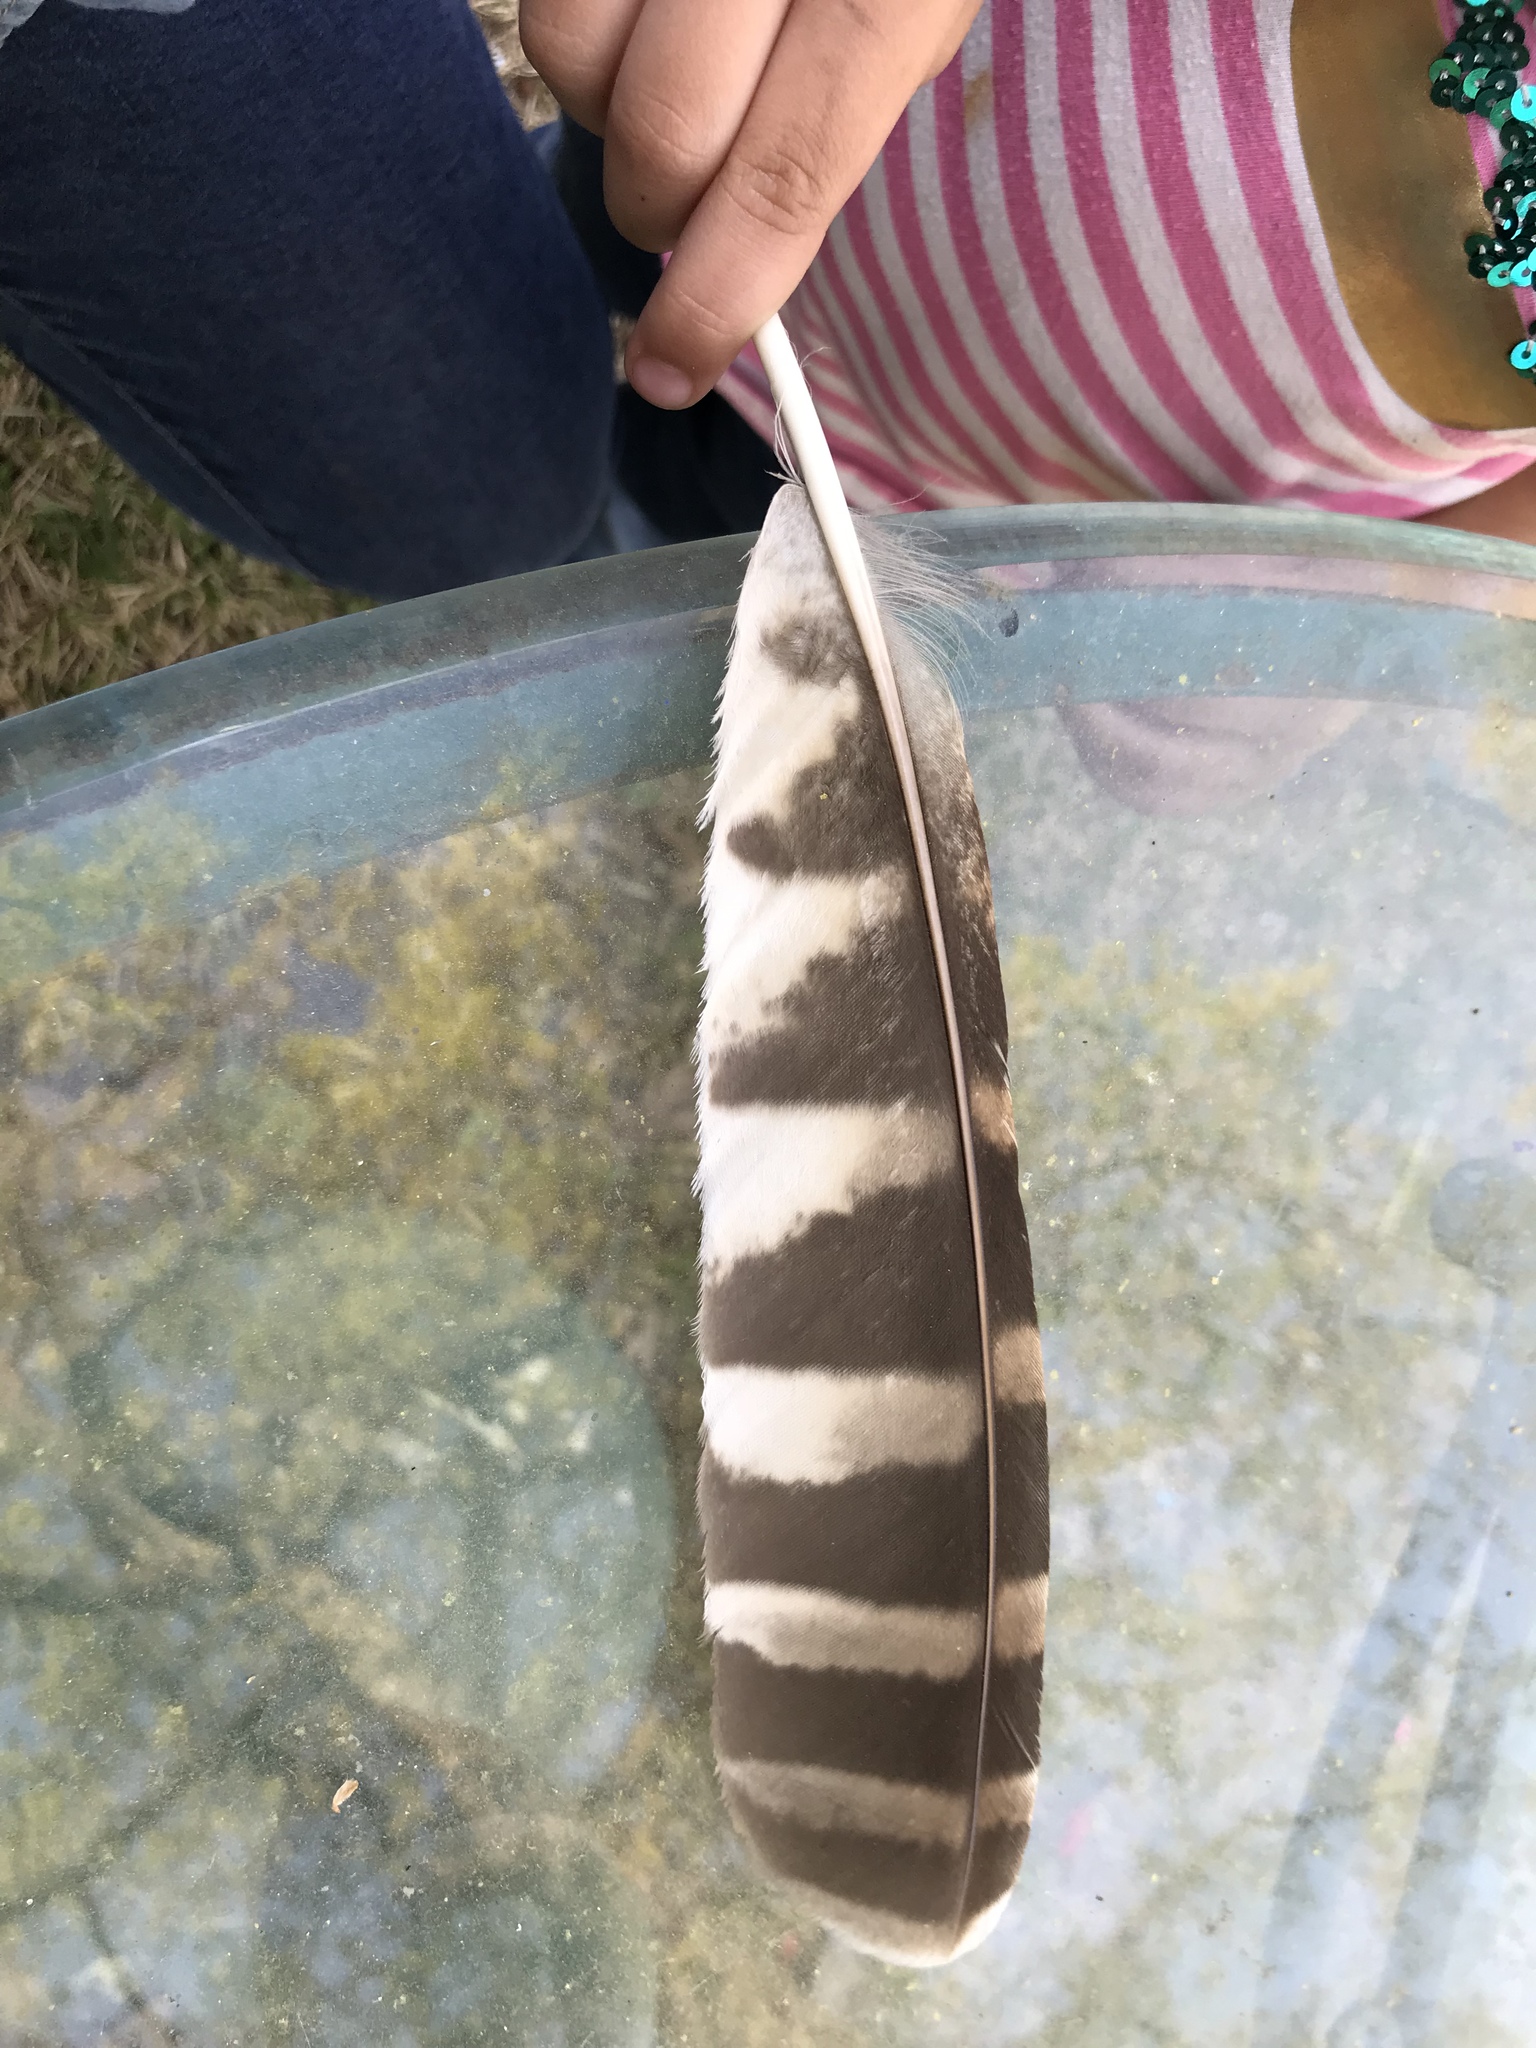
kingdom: Animalia
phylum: Chordata
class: Aves
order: Strigiformes
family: Strigidae
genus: Strix
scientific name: Strix varia
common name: Barred owl
